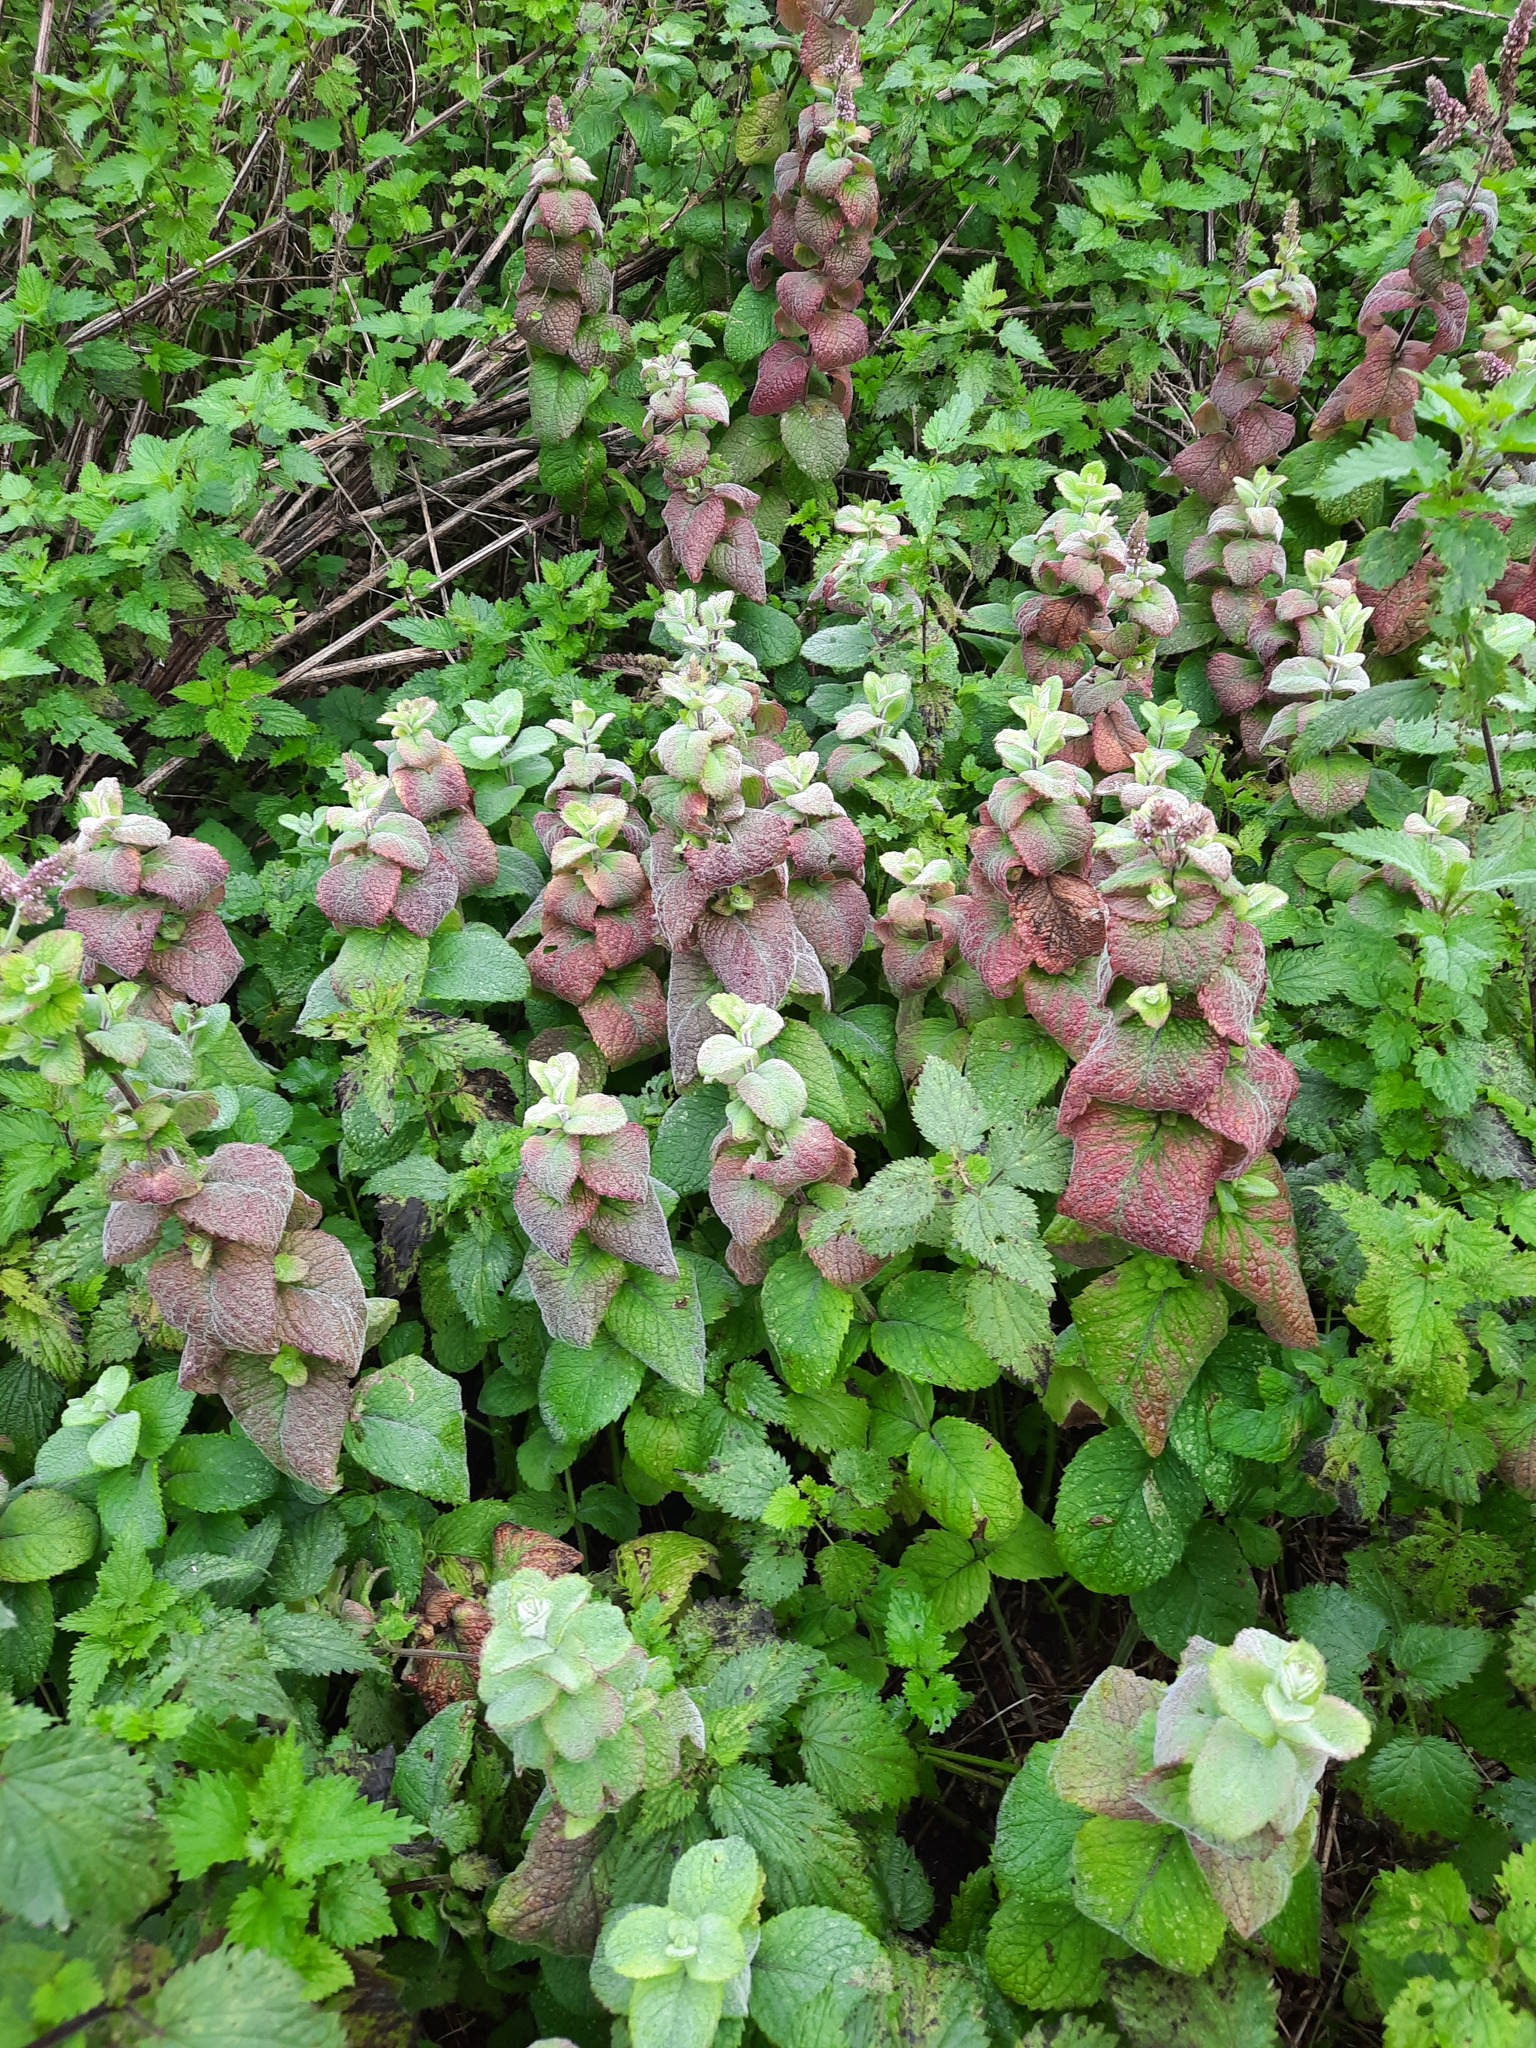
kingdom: Plantae
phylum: Tracheophyta
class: Magnoliopsida
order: Lamiales
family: Lamiaceae
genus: Mentha
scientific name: Mentha villosa
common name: Apple mint
